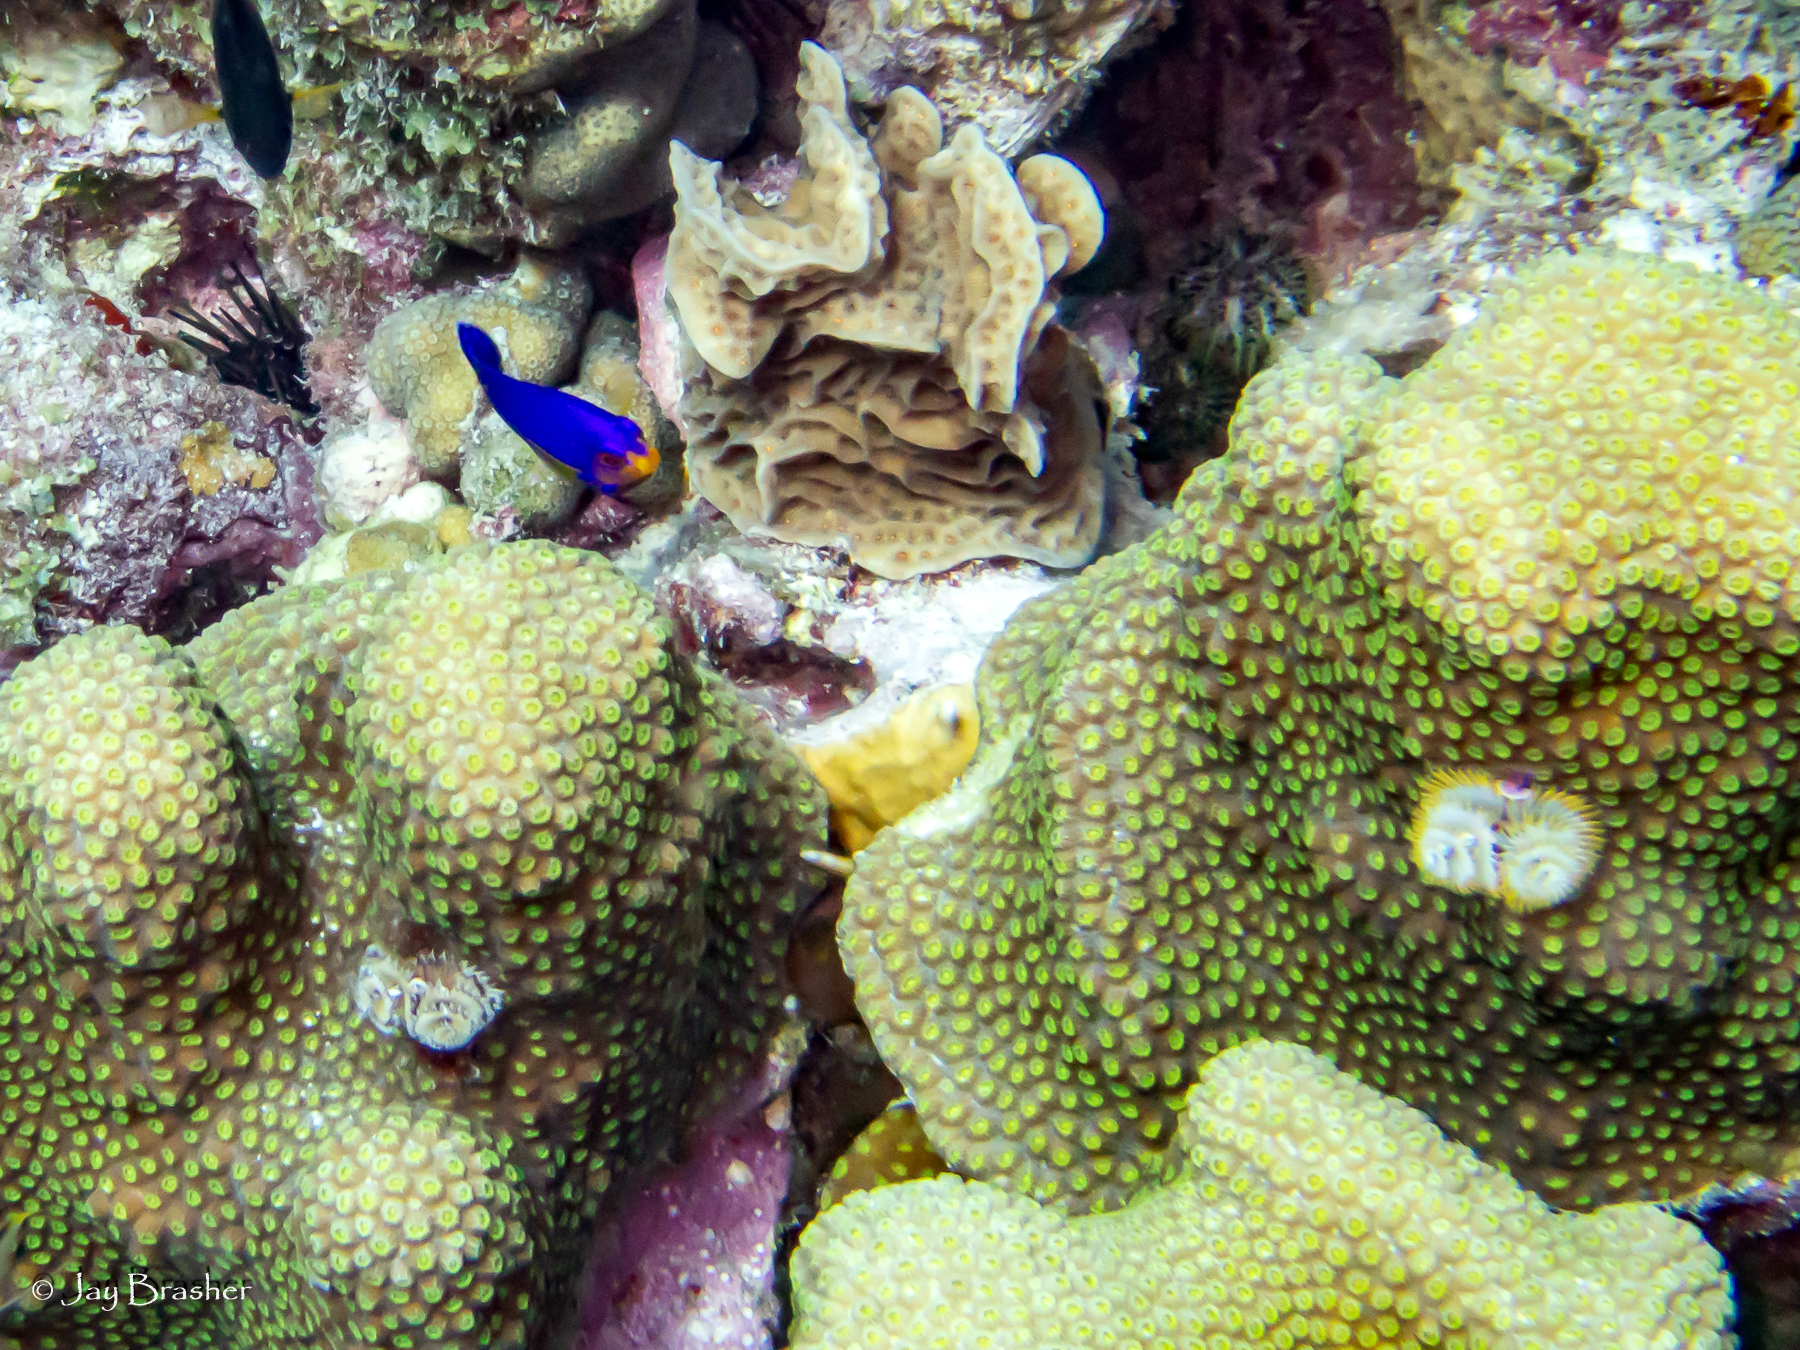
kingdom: Animalia
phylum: Chordata
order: Perciformes
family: Pomacanthidae
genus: Centropyge
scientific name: Centropyge argi
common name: Cherubfish
